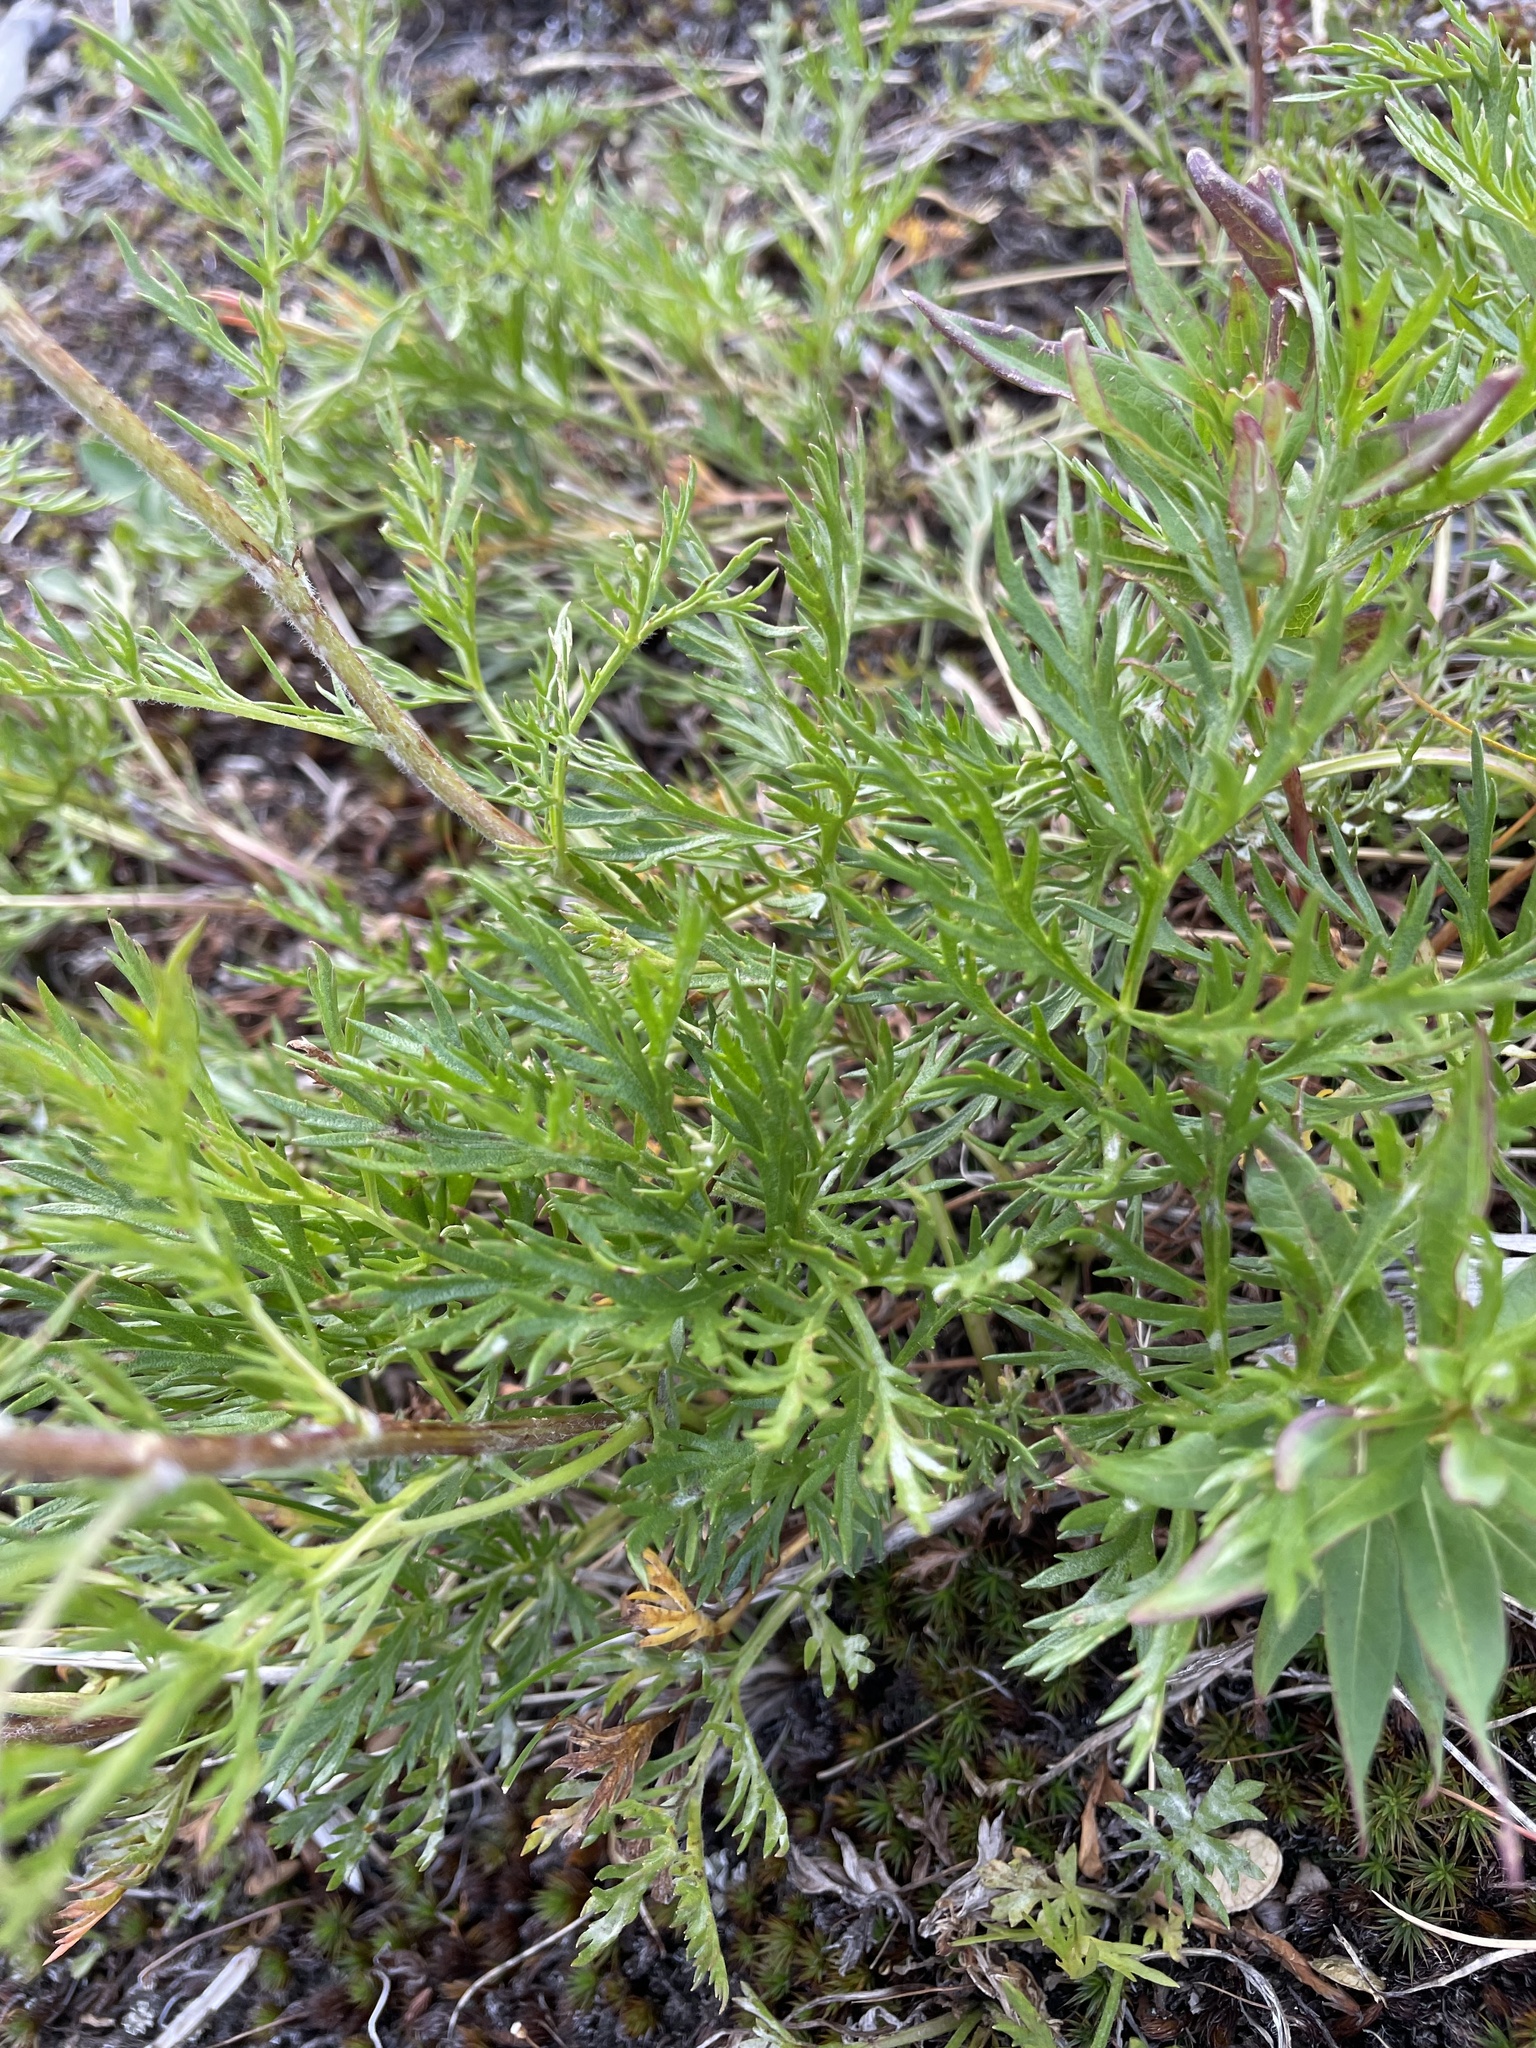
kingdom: Plantae
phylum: Tracheophyta
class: Magnoliopsida
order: Asterales
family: Asteraceae
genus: Artemisia
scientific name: Artemisia norvegica
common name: Norwegian mugwort
